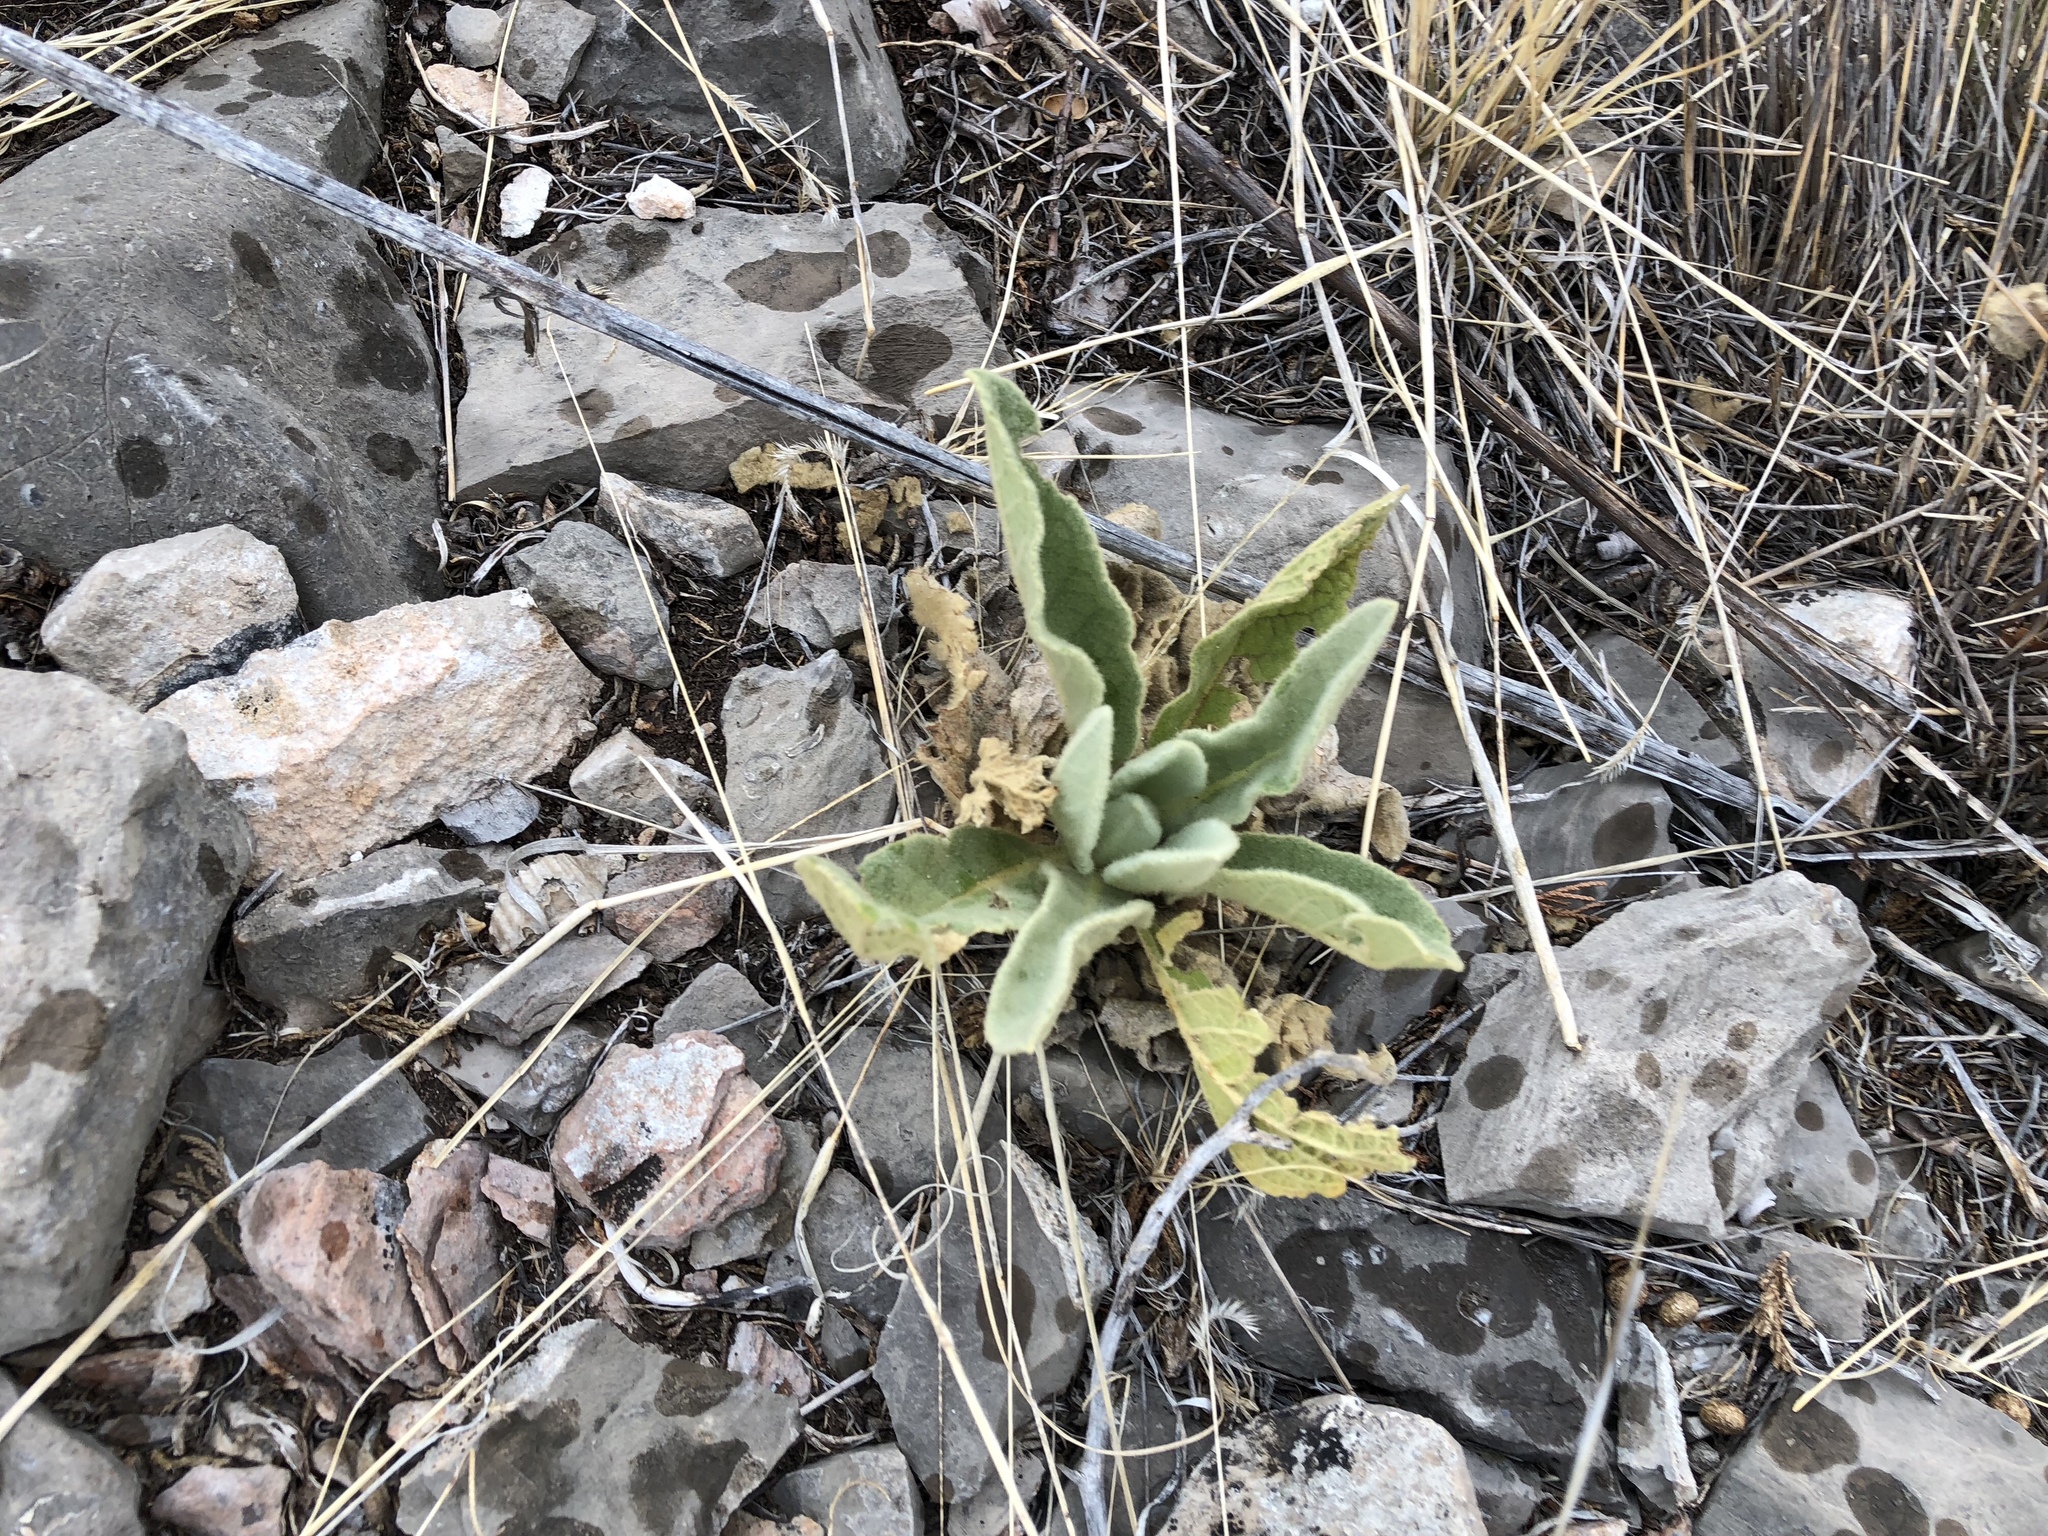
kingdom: Plantae
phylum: Tracheophyta
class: Magnoliopsida
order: Lamiales
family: Scrophulariaceae
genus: Verbascum
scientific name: Verbascum thapsus
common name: Common mullein
